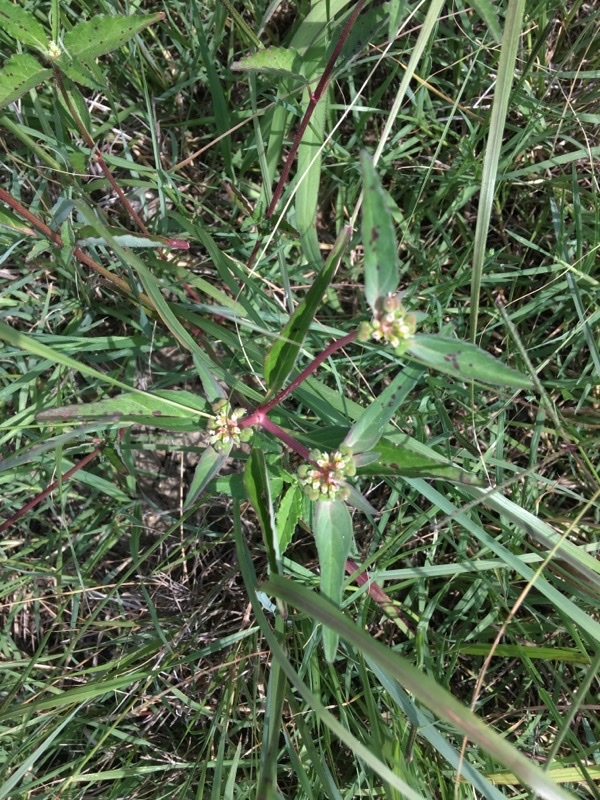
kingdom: Plantae
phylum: Tracheophyta
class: Magnoliopsida
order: Malpighiales
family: Euphorbiaceae
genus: Euphorbia
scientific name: Euphorbia dentata
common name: Dentate spurge
